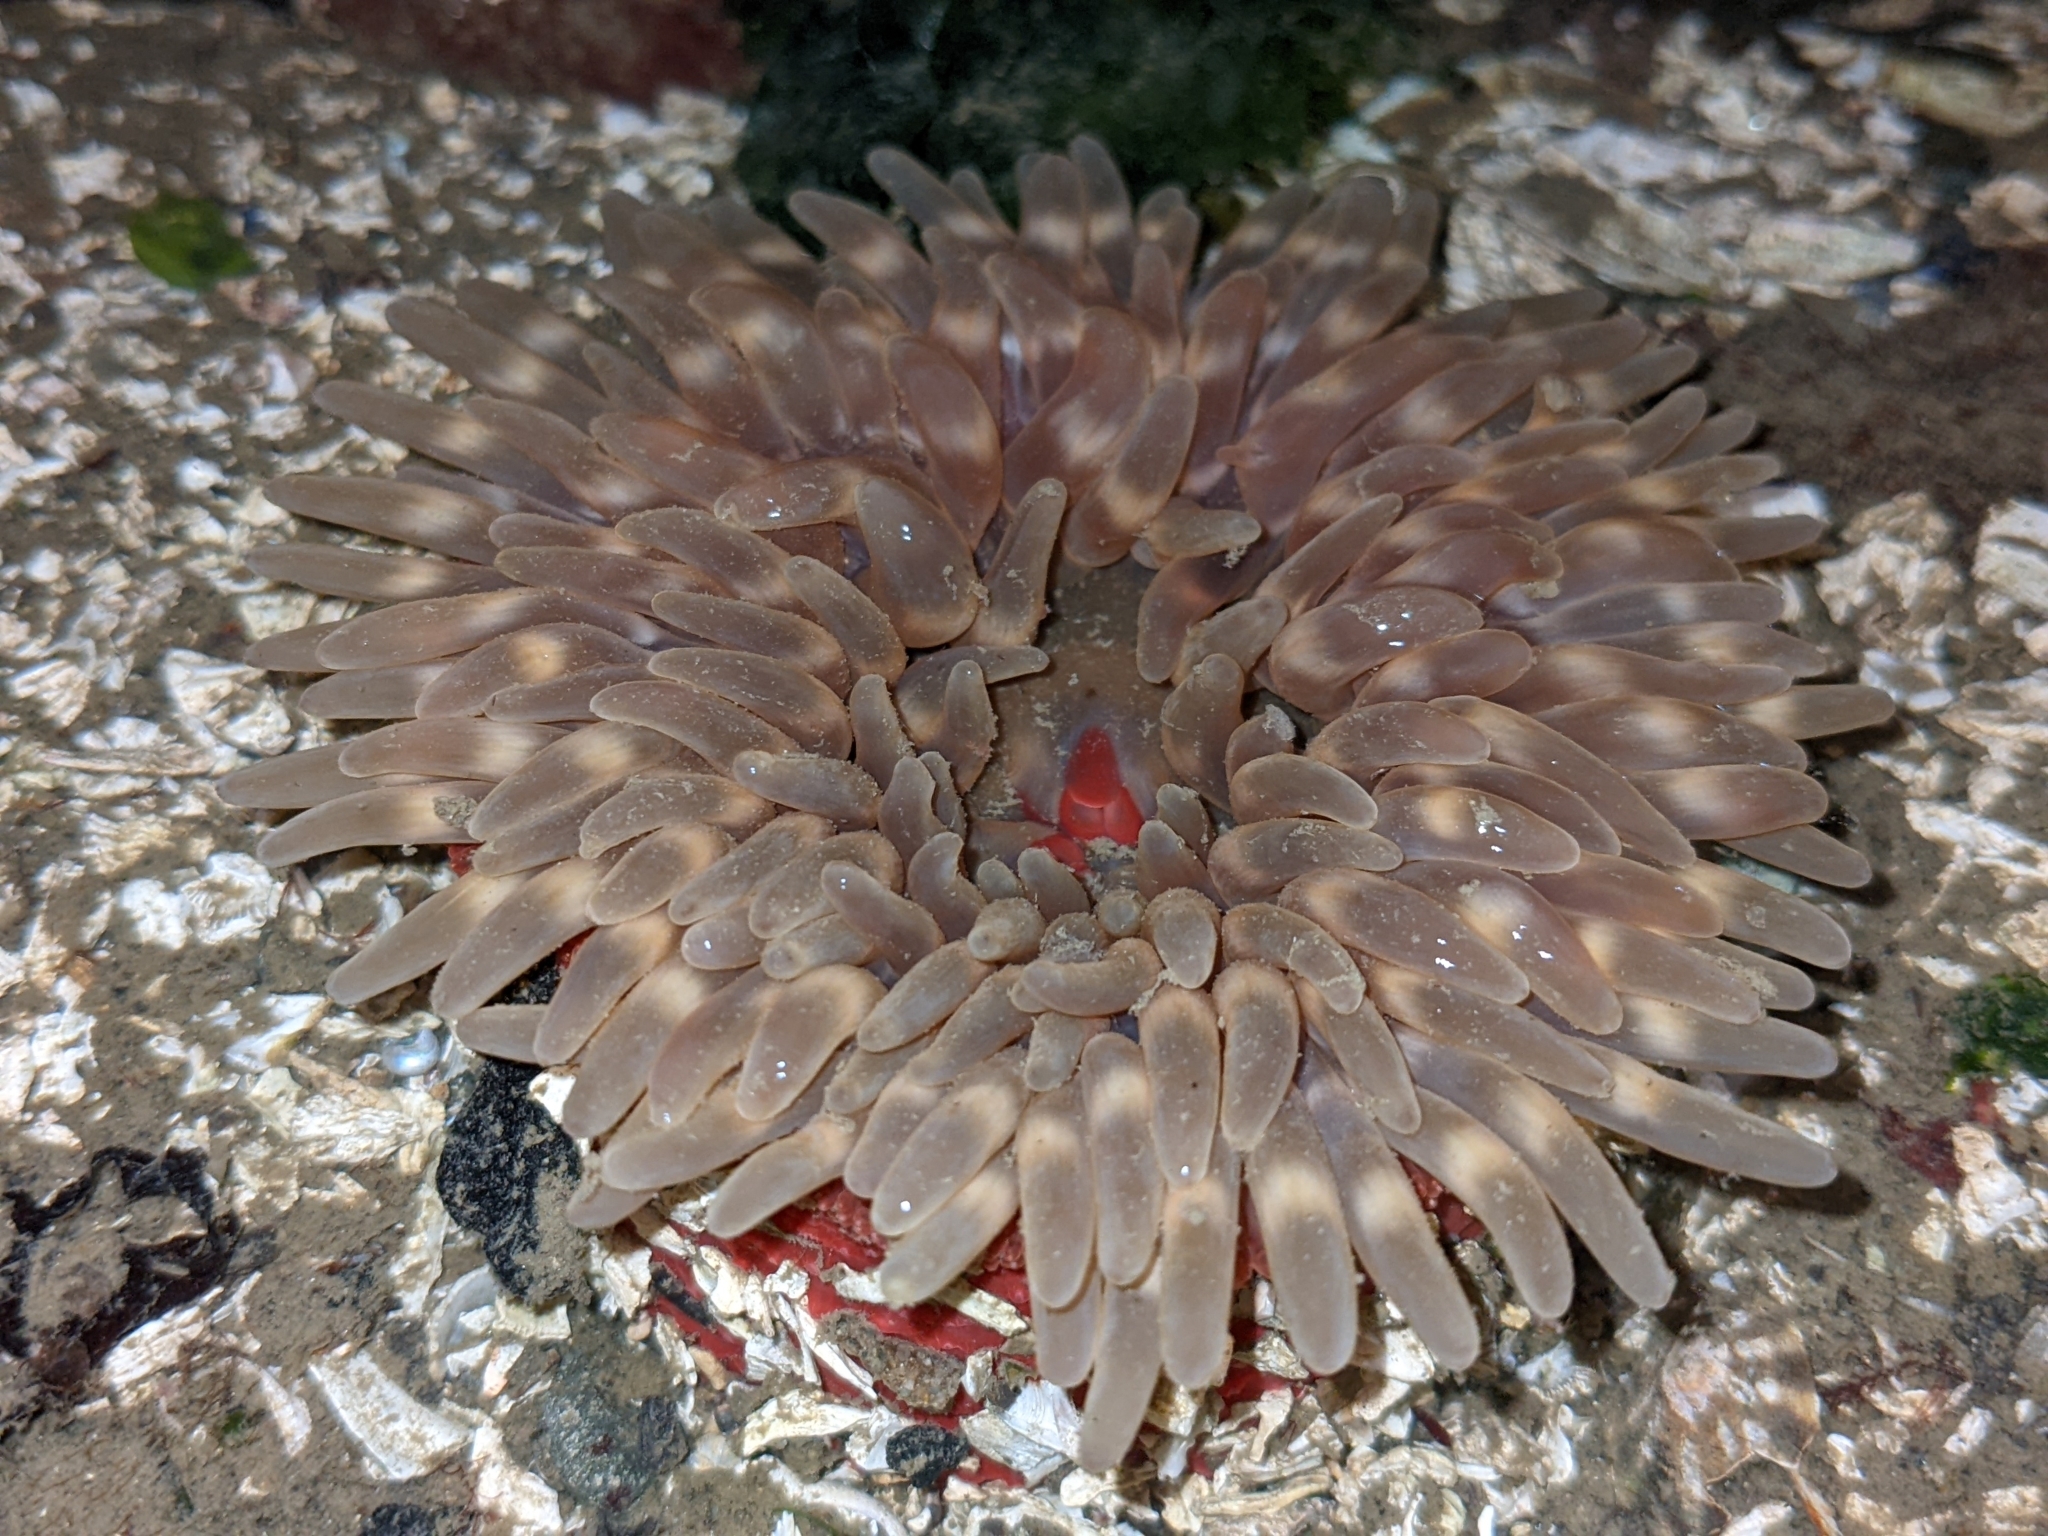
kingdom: Animalia
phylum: Cnidaria
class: Anthozoa
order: Actiniaria
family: Actiniidae
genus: Urticina
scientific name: Urticina clandestina
